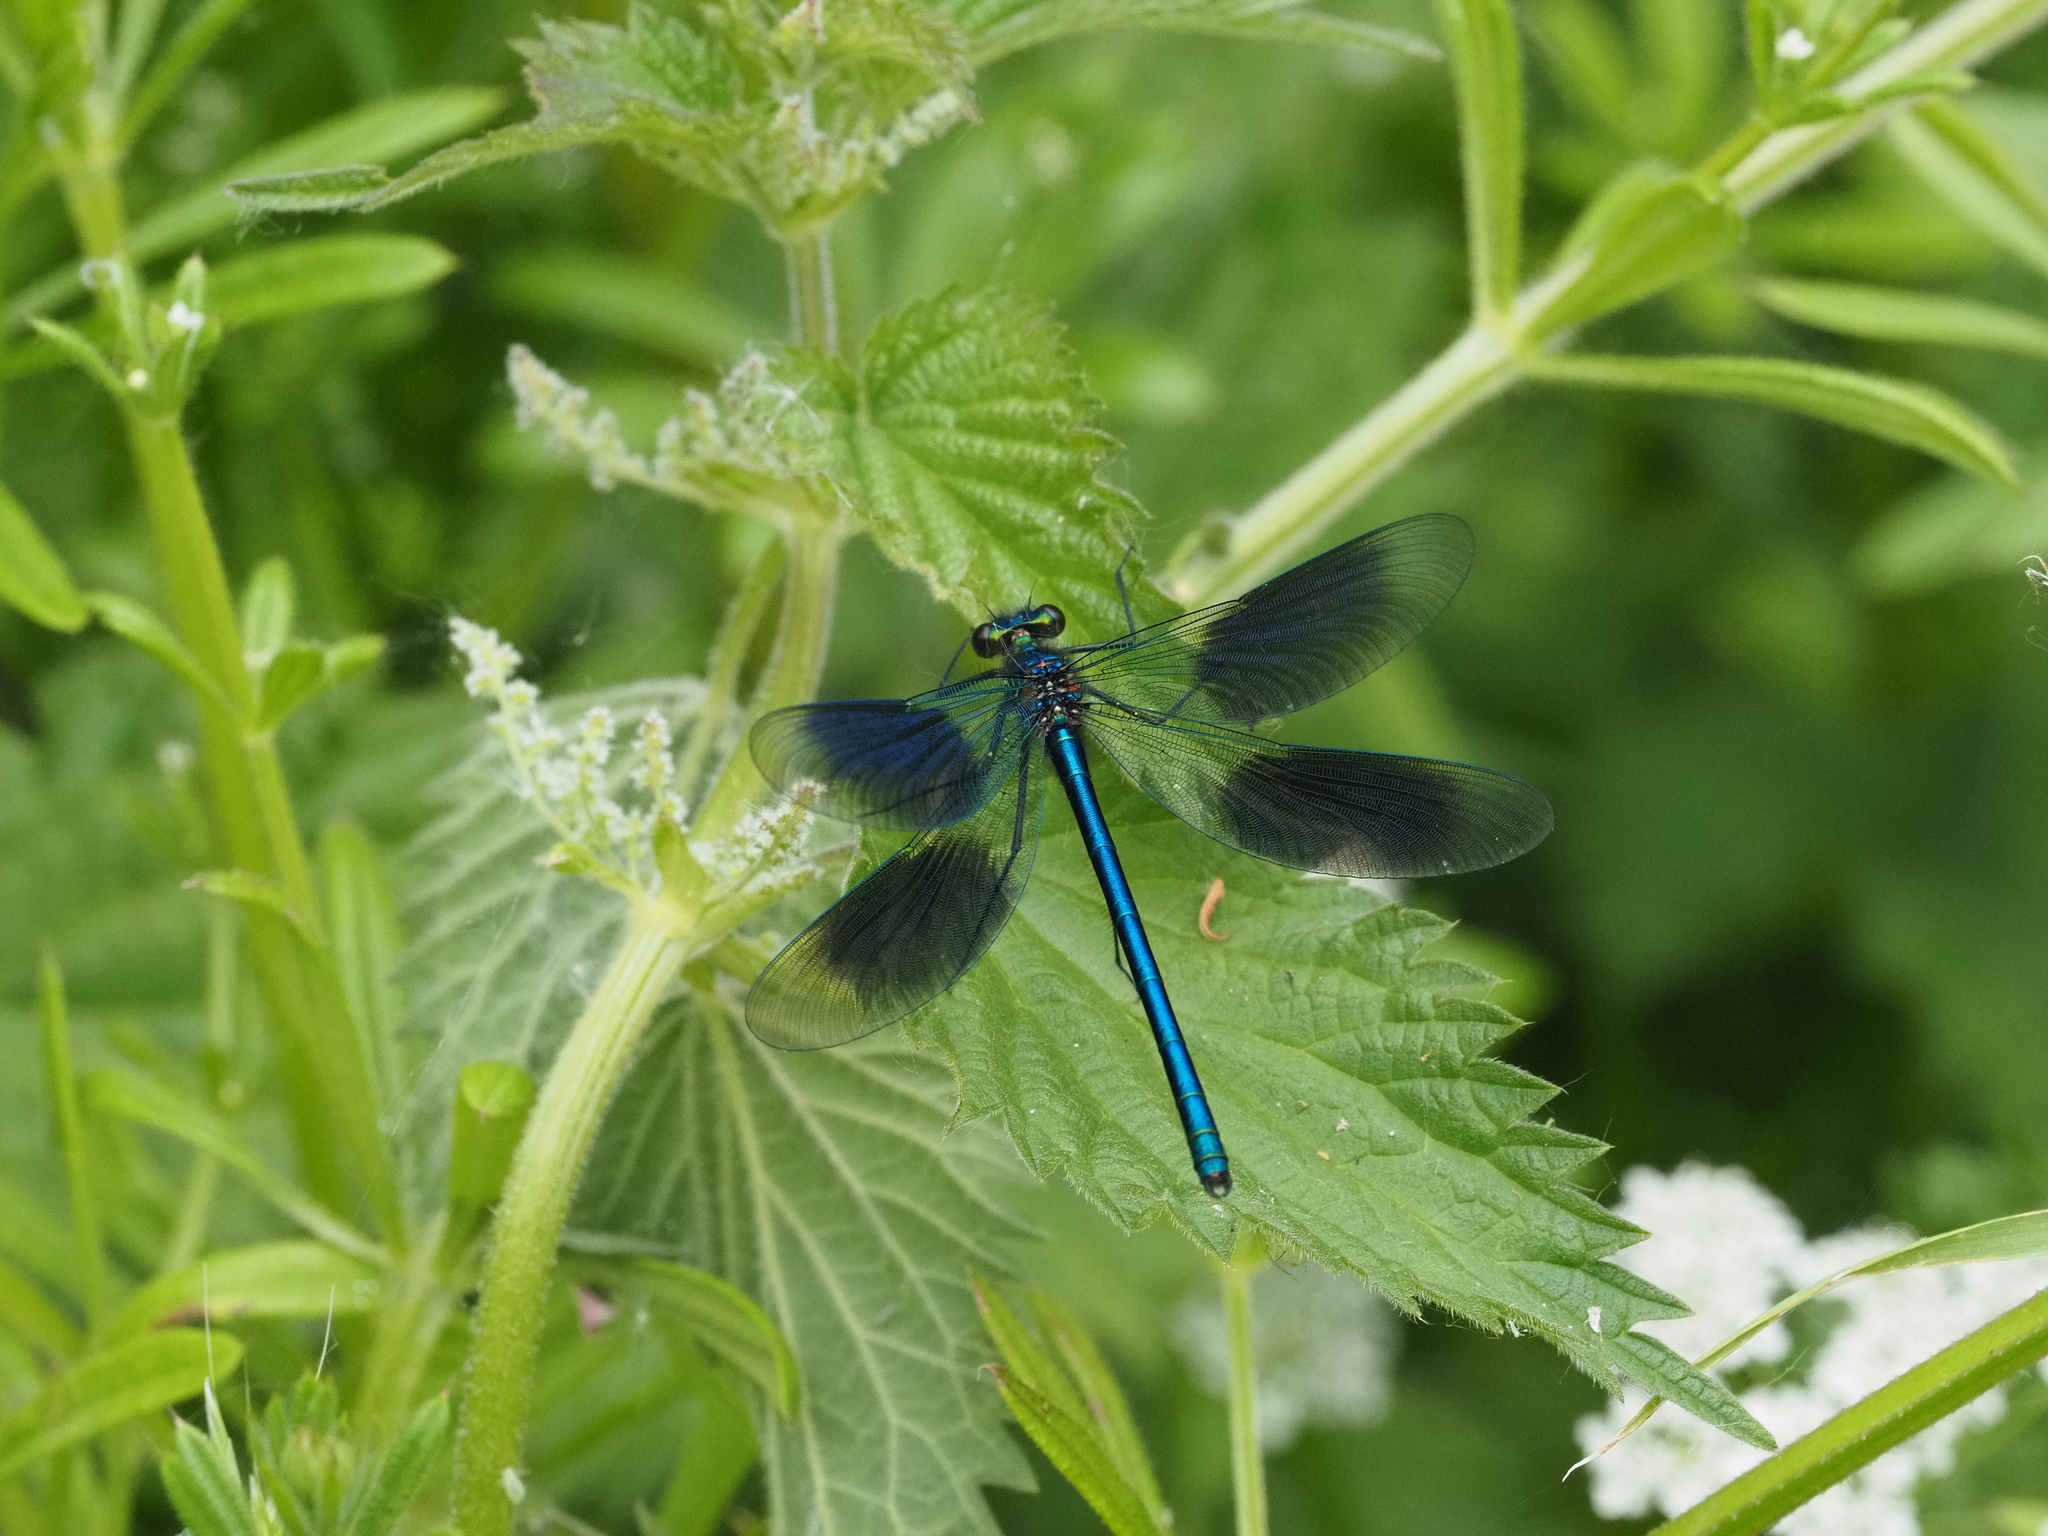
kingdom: Animalia
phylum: Arthropoda
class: Insecta
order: Odonata
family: Calopterygidae
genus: Calopteryx
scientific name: Calopteryx splendens
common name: Banded demoiselle
